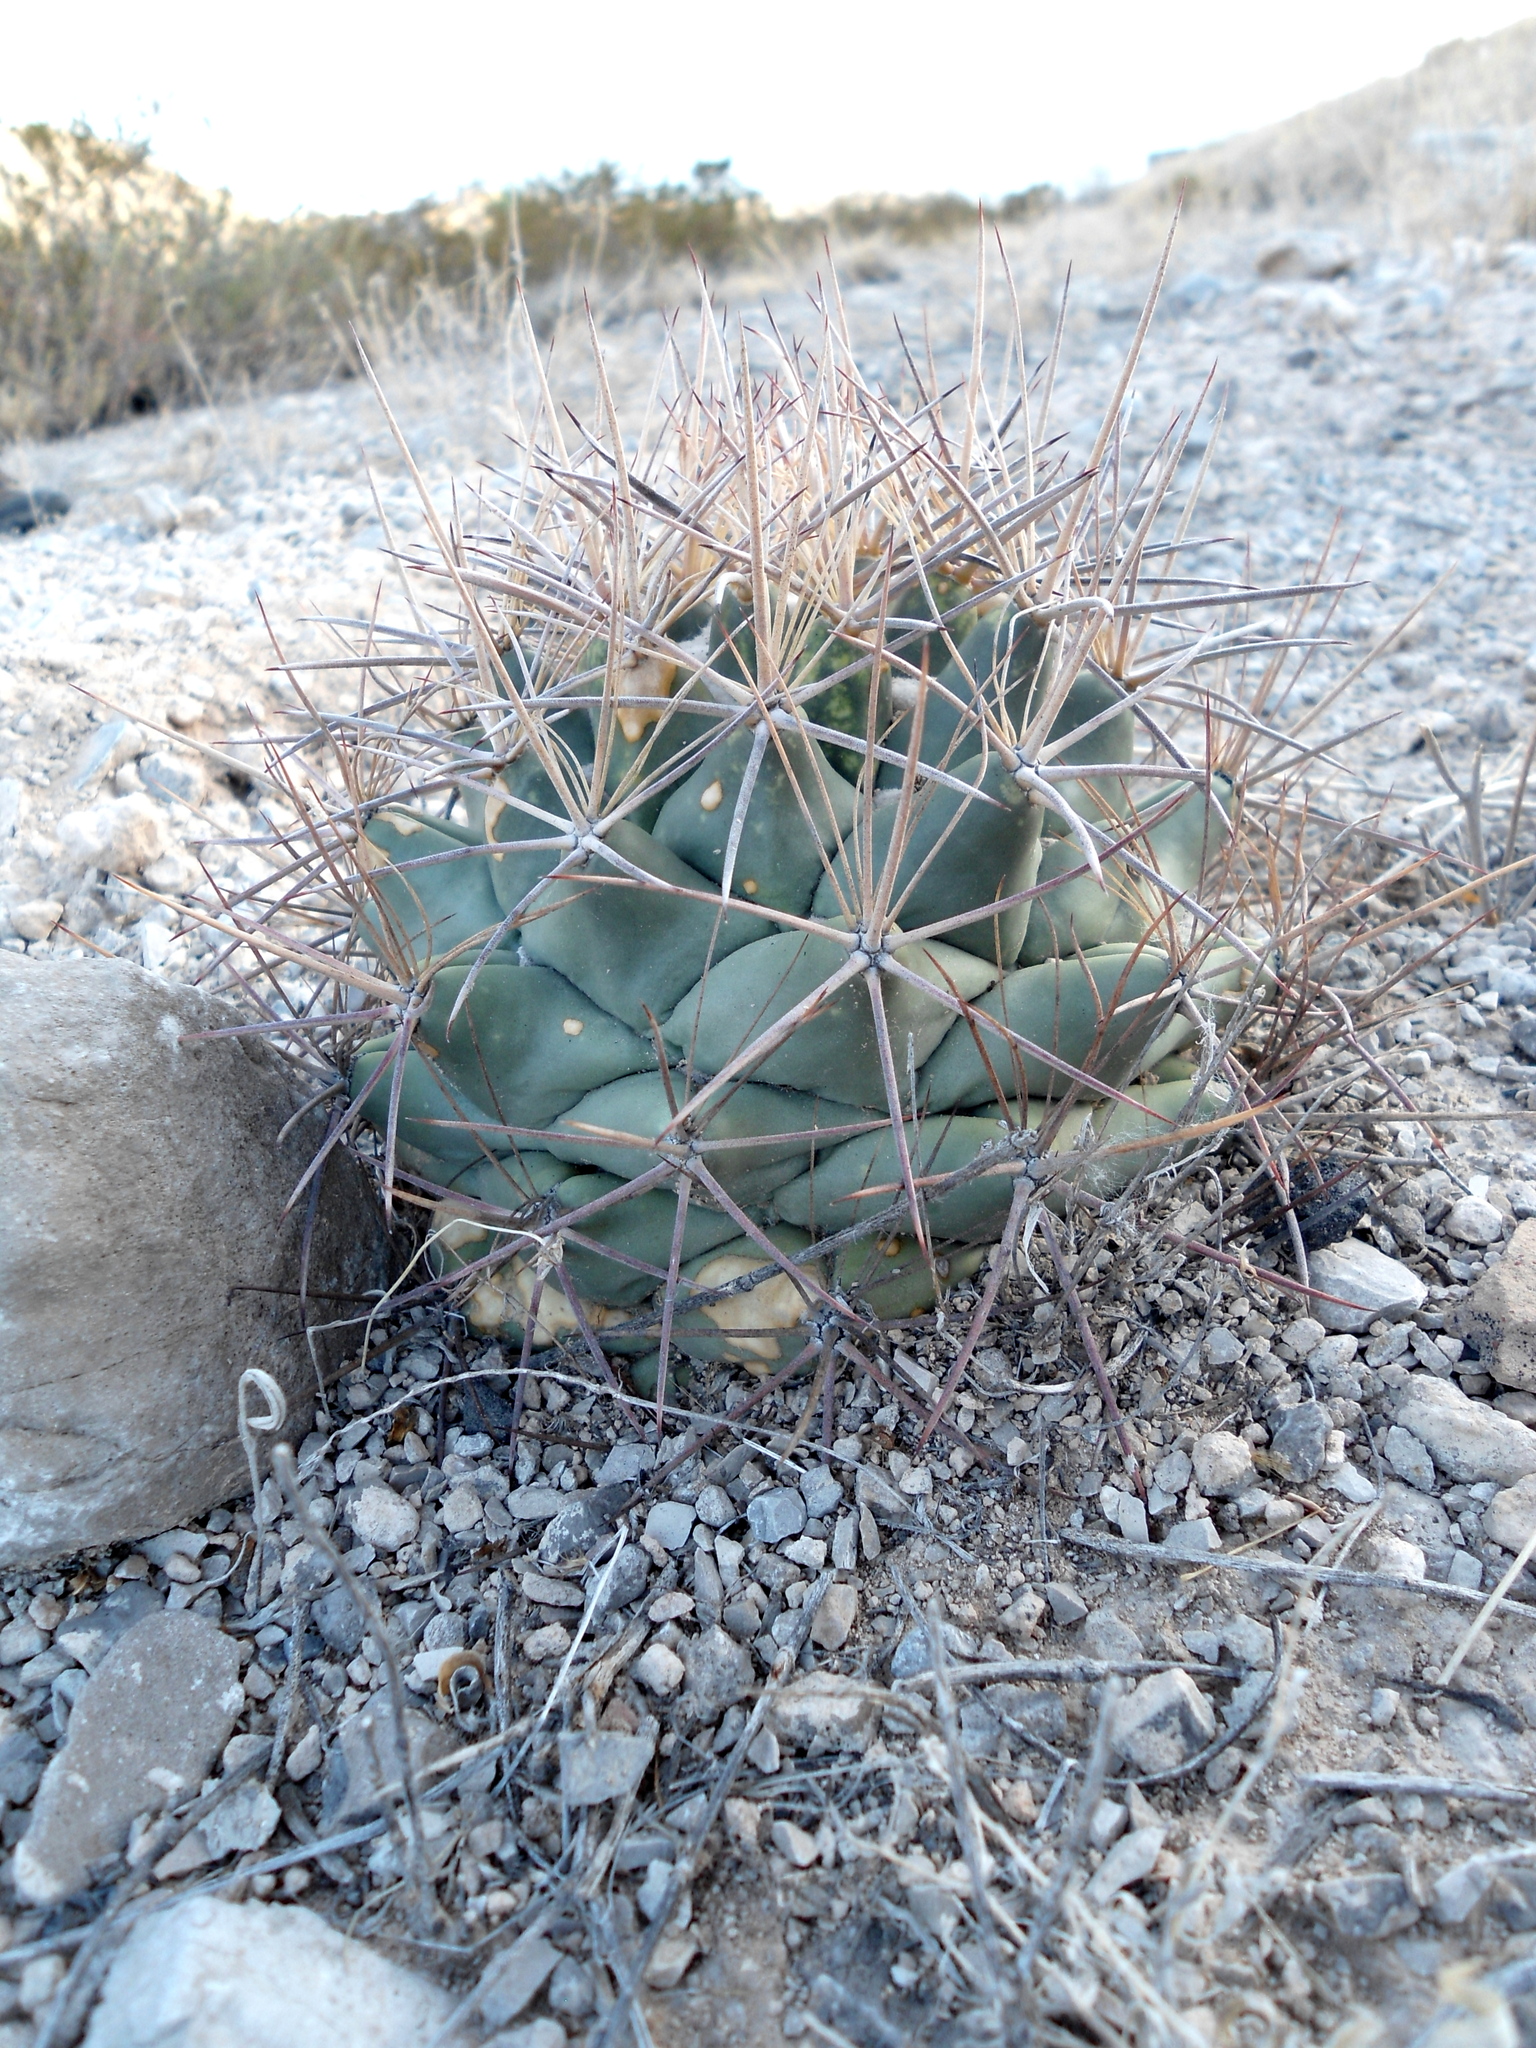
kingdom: Plantae
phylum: Tracheophyta
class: Magnoliopsida
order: Caryophyllales
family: Cactaceae
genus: Coryphantha
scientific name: Coryphantha poselgeriana
